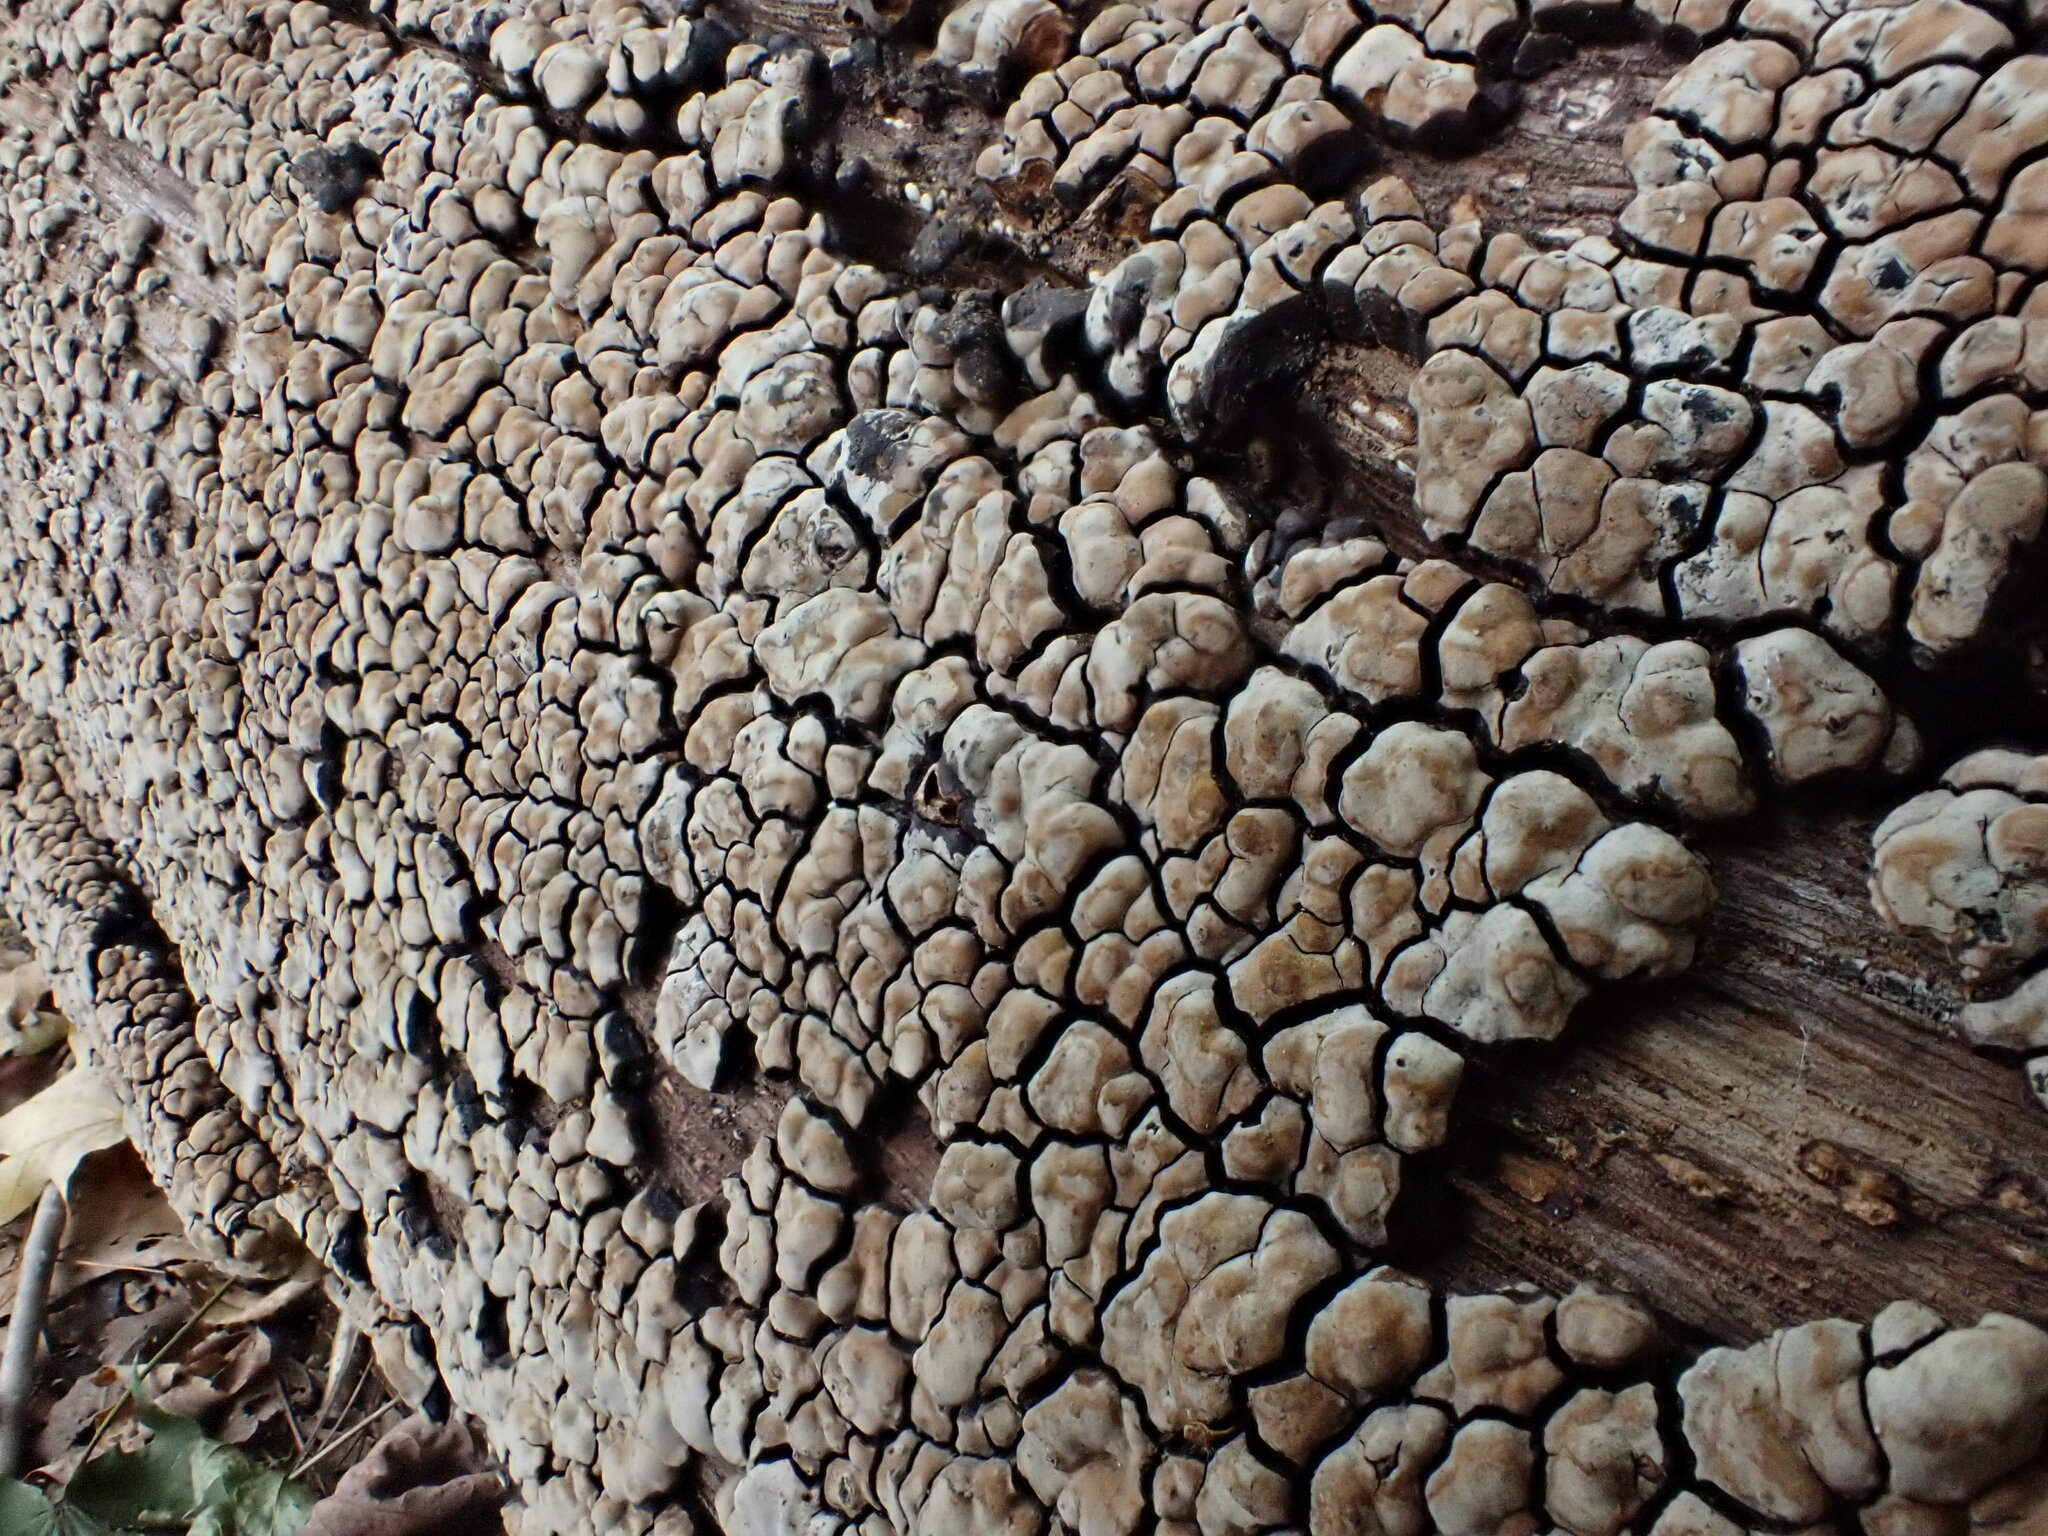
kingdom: Fungi
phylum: Basidiomycota
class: Agaricomycetes
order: Russulales
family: Stereaceae
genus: Xylobolus
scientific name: Xylobolus frustulatus
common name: Ceramic parchment
